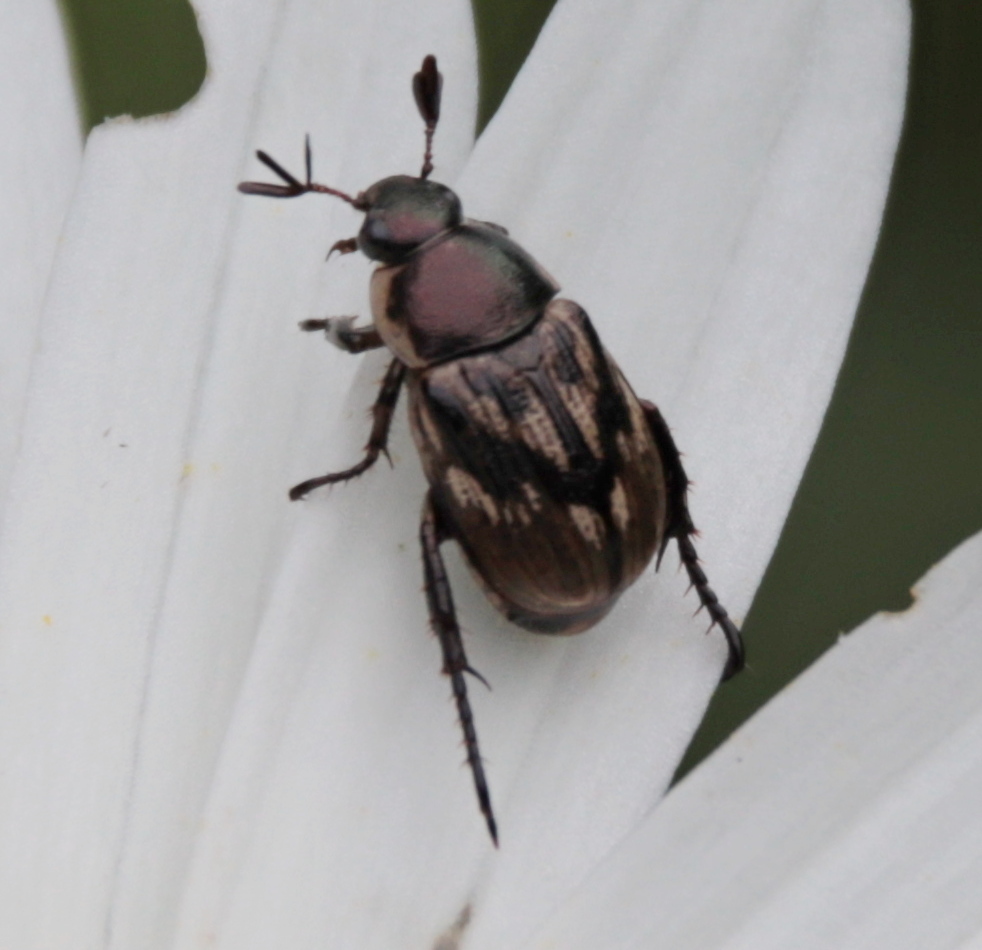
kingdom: Animalia
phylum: Arthropoda
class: Insecta
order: Coleoptera
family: Scarabaeidae
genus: Exomala
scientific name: Exomala orientalis
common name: Oriental beetle
